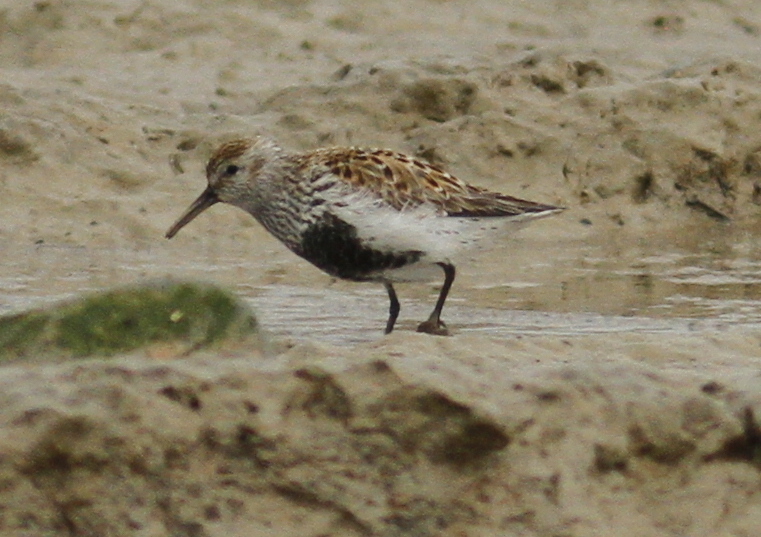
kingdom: Animalia
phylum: Chordata
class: Aves
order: Charadriiformes
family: Scolopacidae
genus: Calidris
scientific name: Calidris alpina
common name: Dunlin
